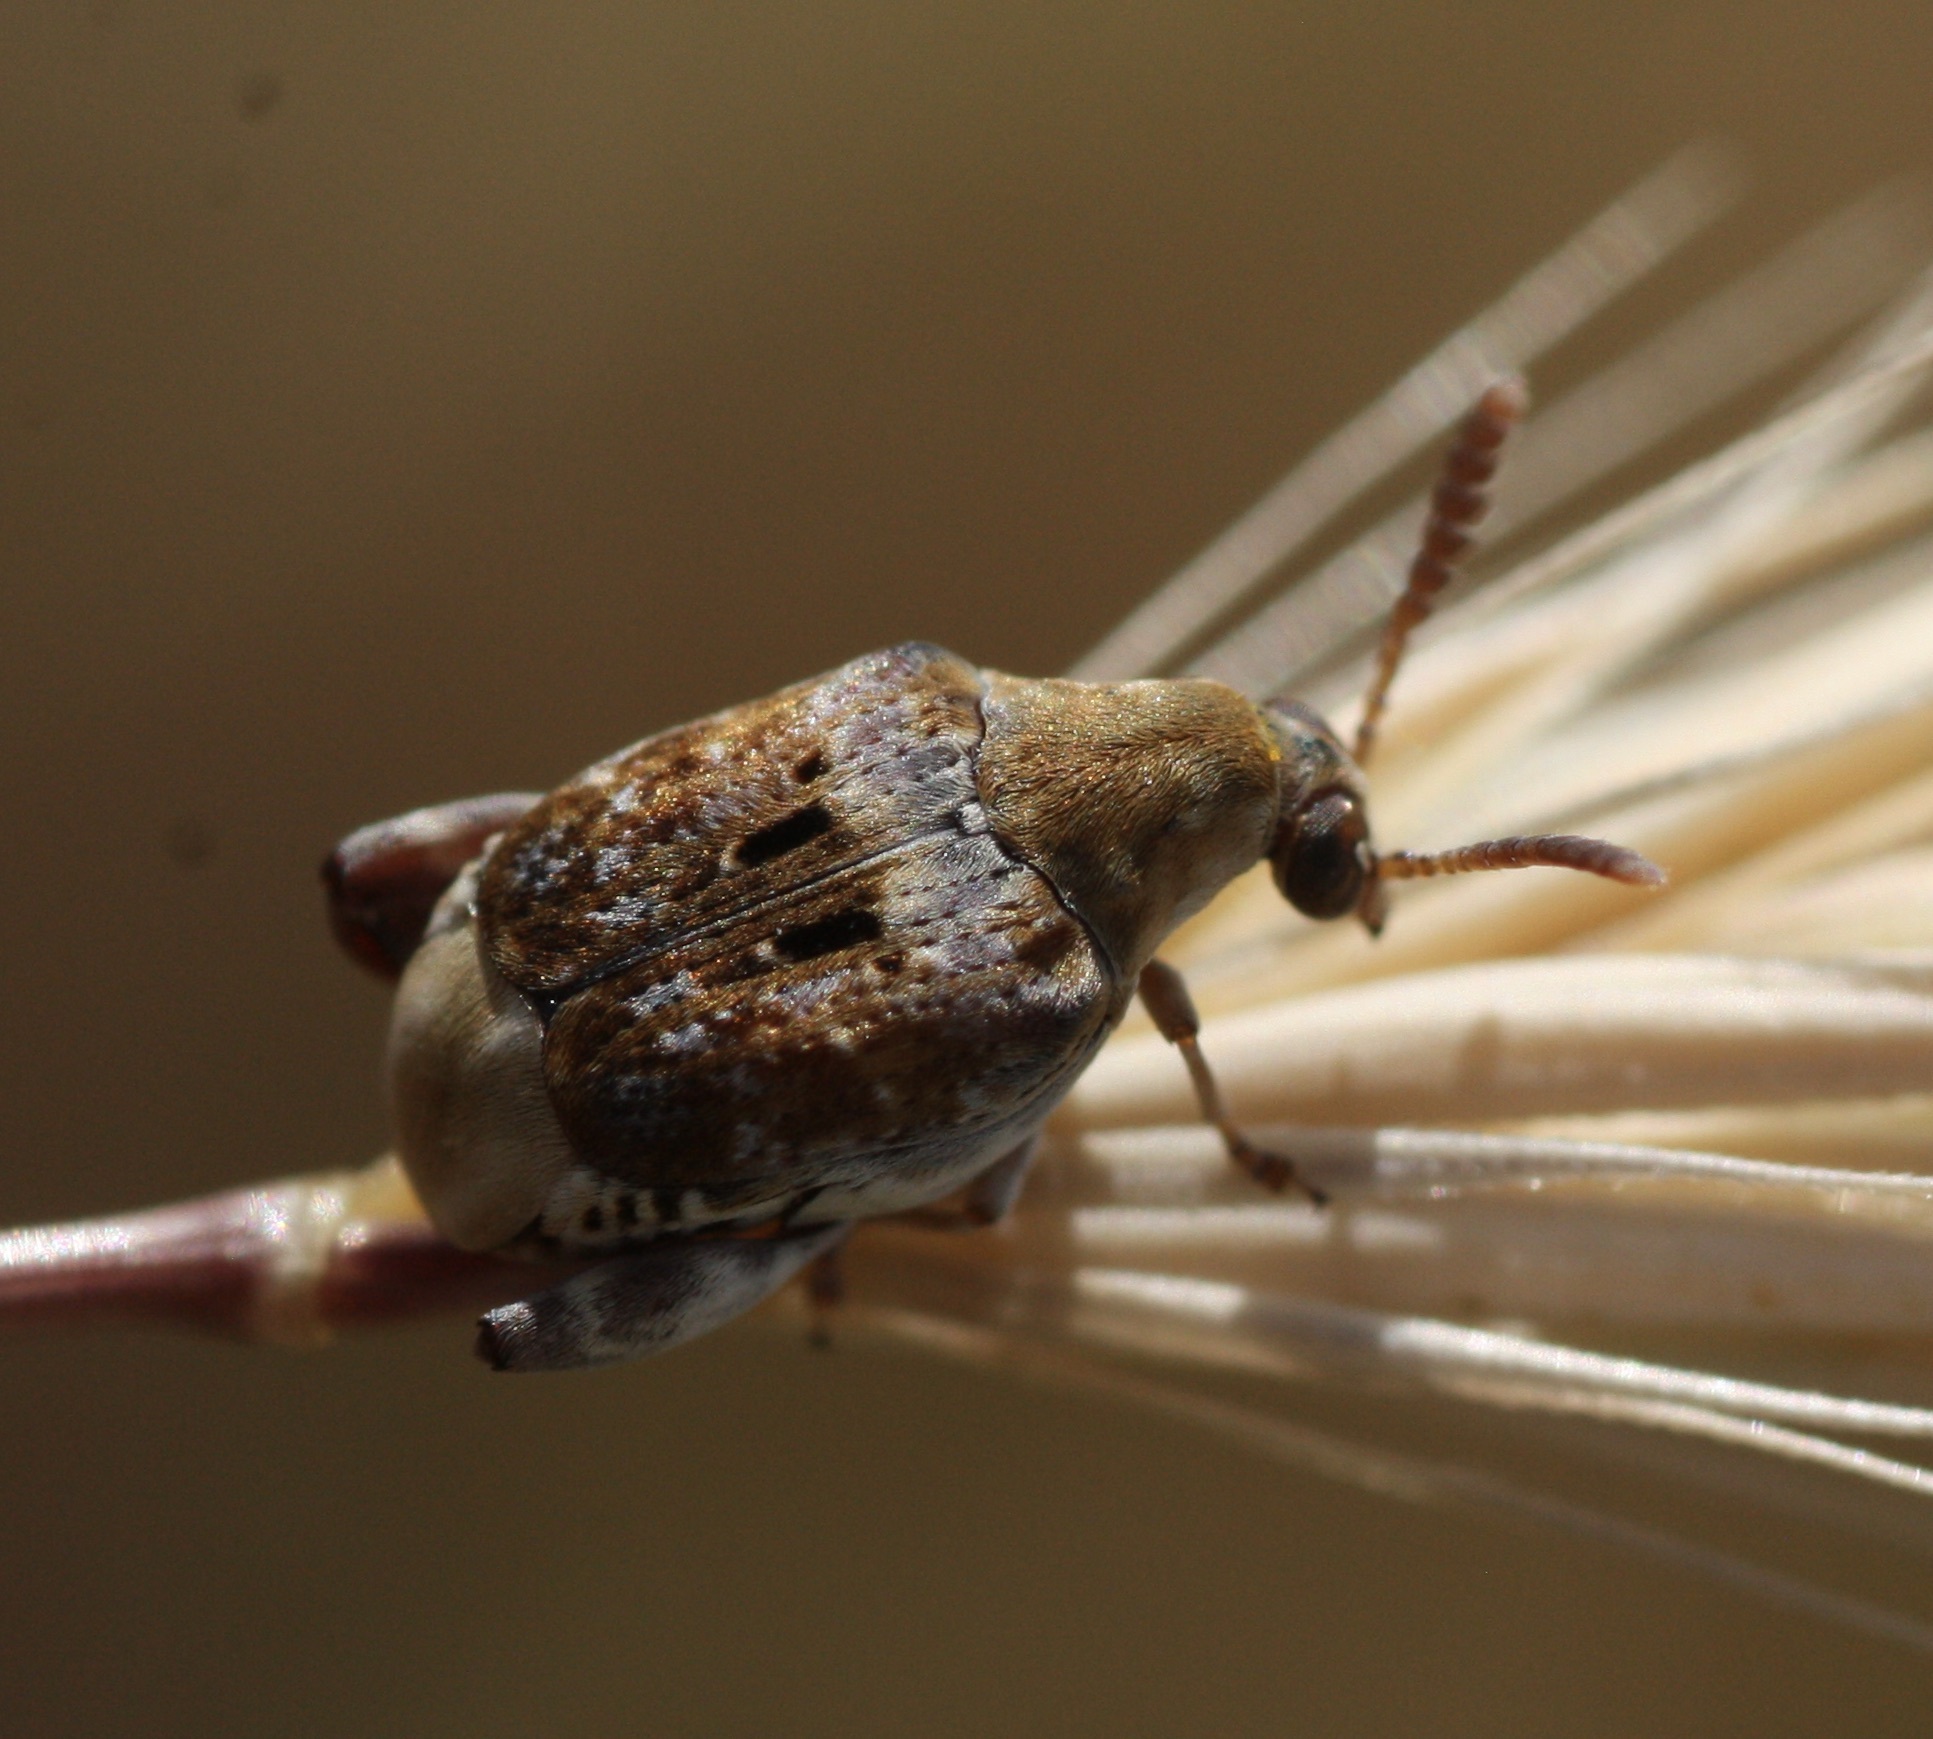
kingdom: Animalia
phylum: Arthropoda
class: Insecta
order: Coleoptera
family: Chrysomelidae
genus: Penthobruchus
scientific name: Penthobruchus
